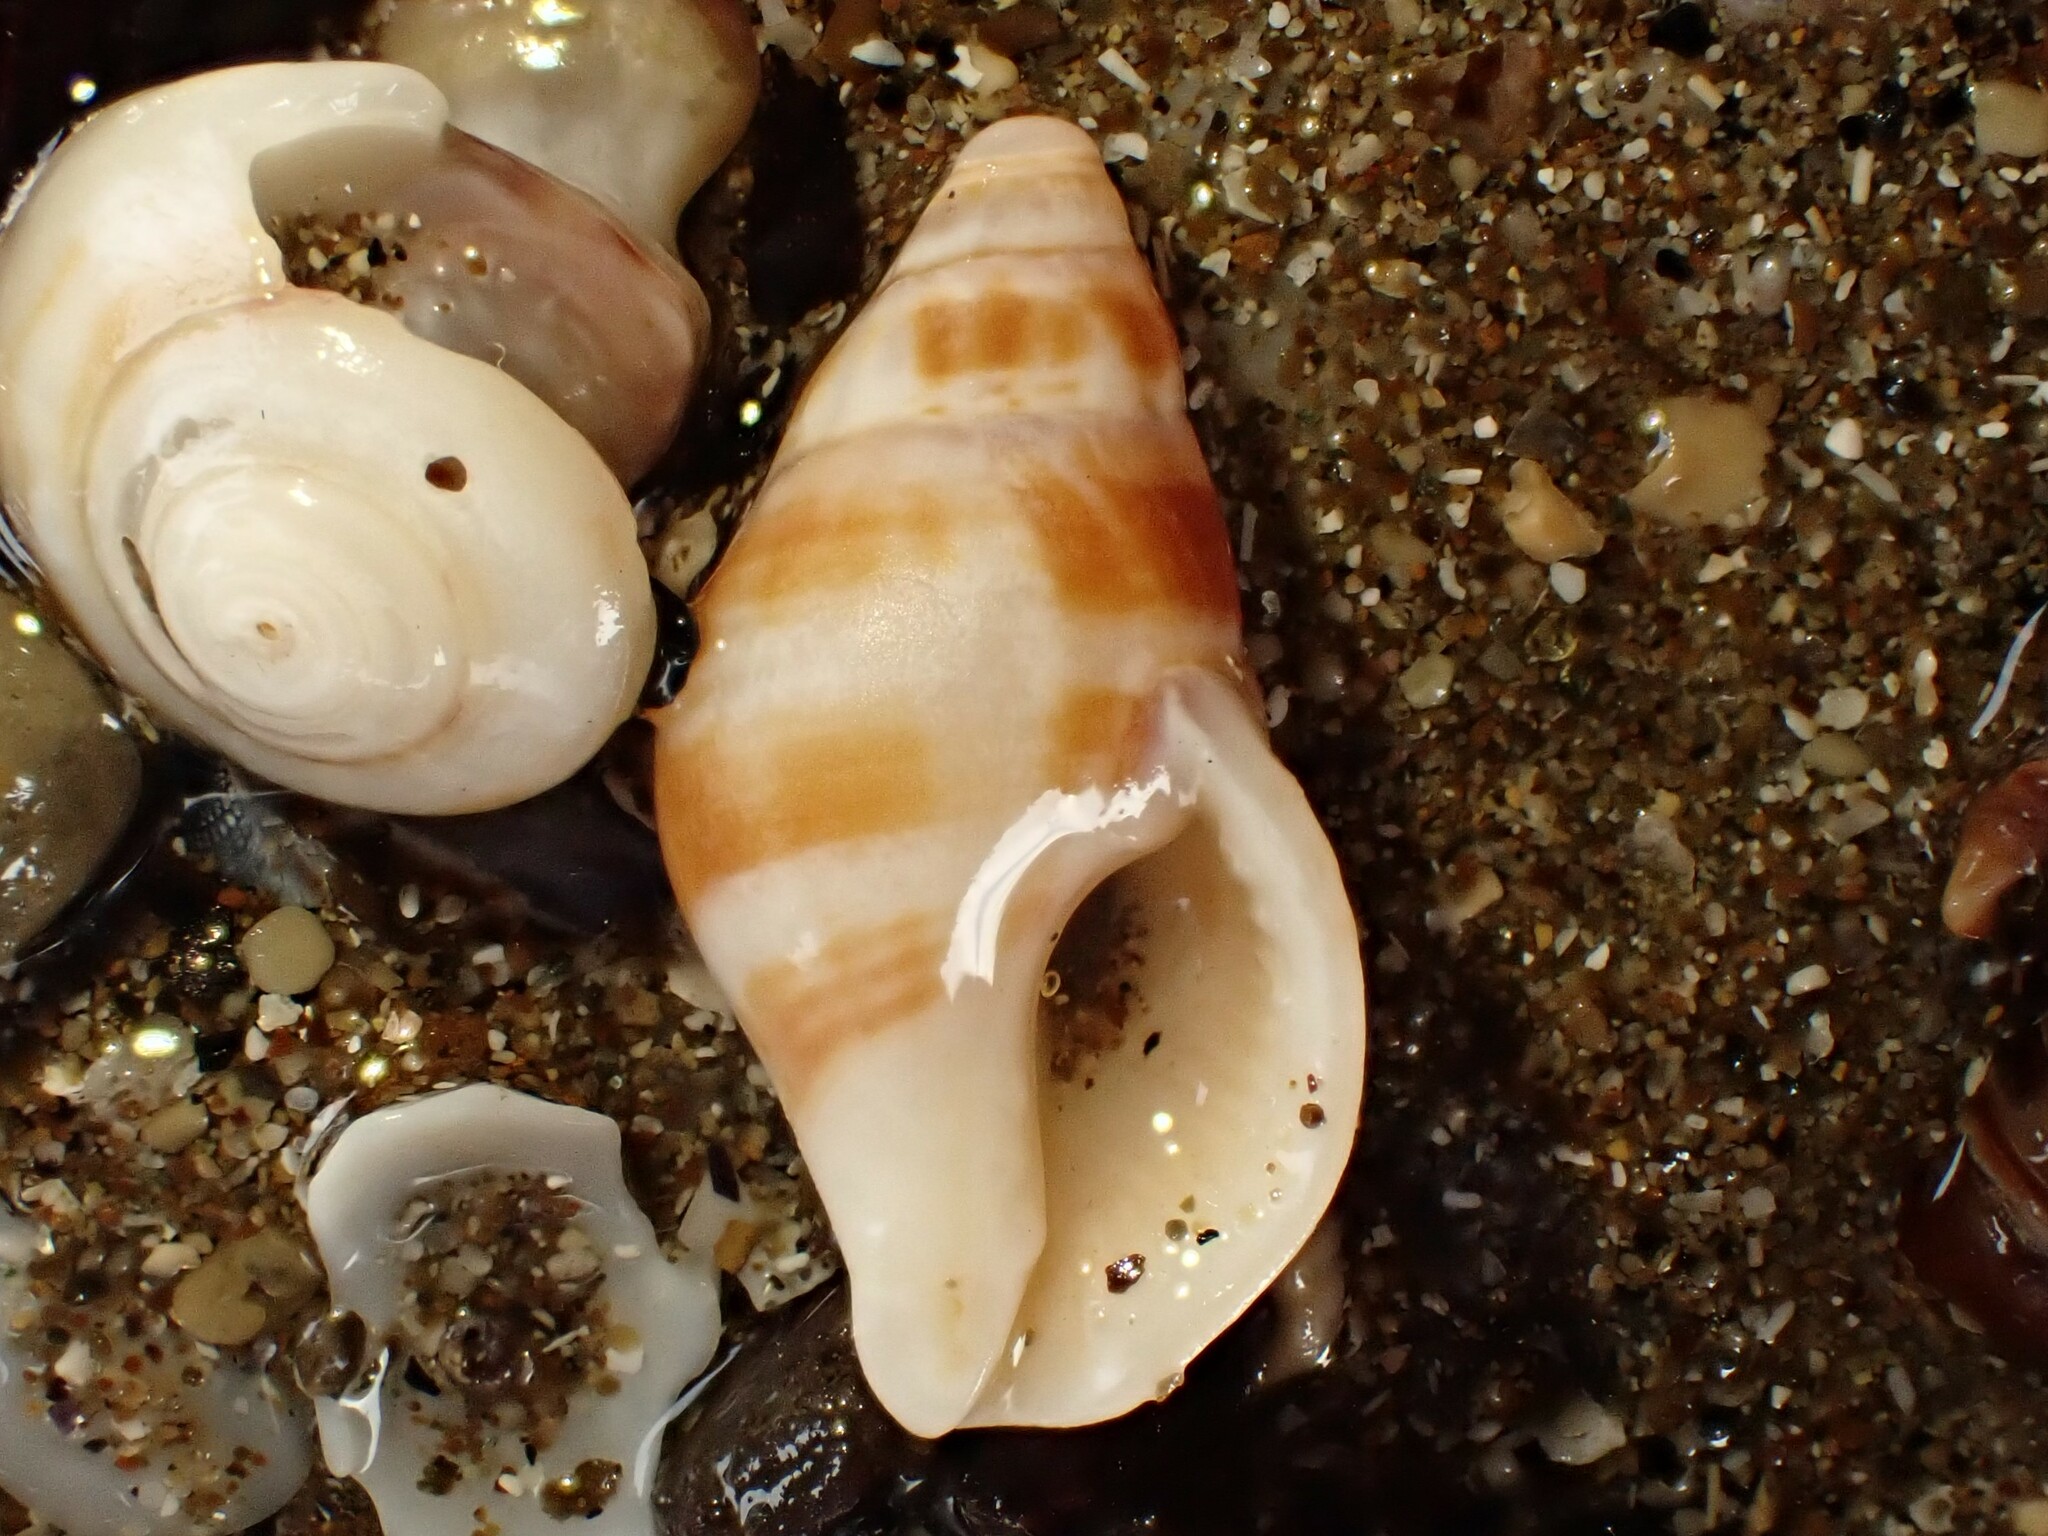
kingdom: Animalia
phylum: Mollusca
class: Gastropoda
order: Neogastropoda
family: Tudiclidae
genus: Buccinulum
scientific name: Buccinulum vittatum
